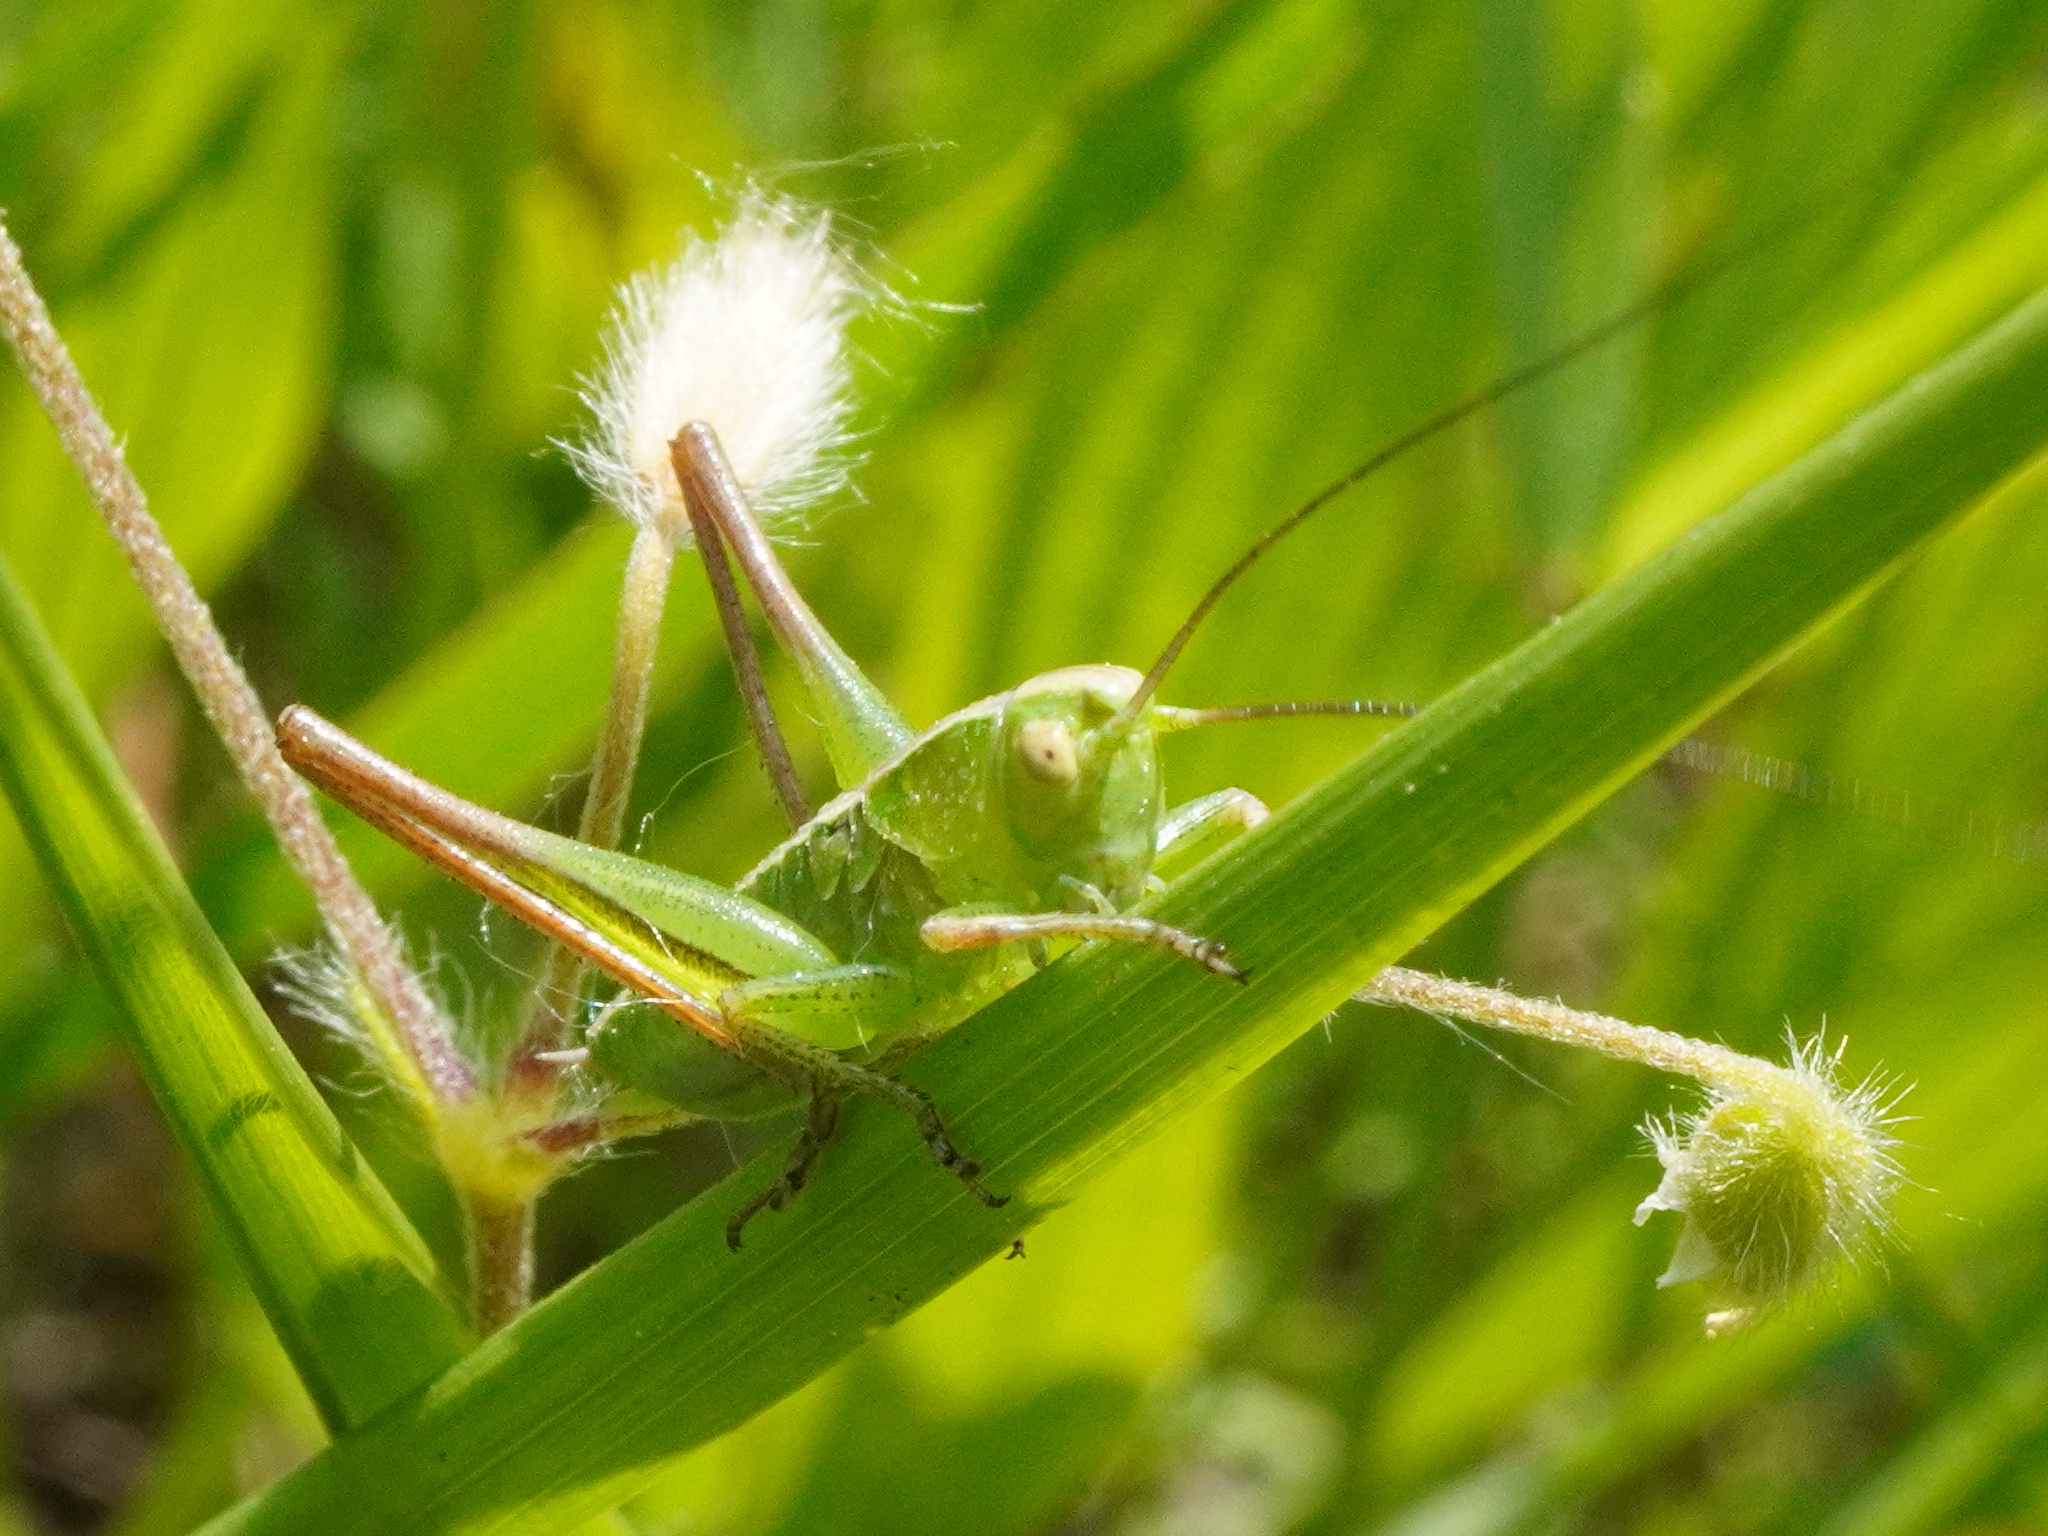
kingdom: Animalia
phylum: Arthropoda
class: Insecta
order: Orthoptera
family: Tettigoniidae
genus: Bicolorana
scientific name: Bicolorana bicolor
